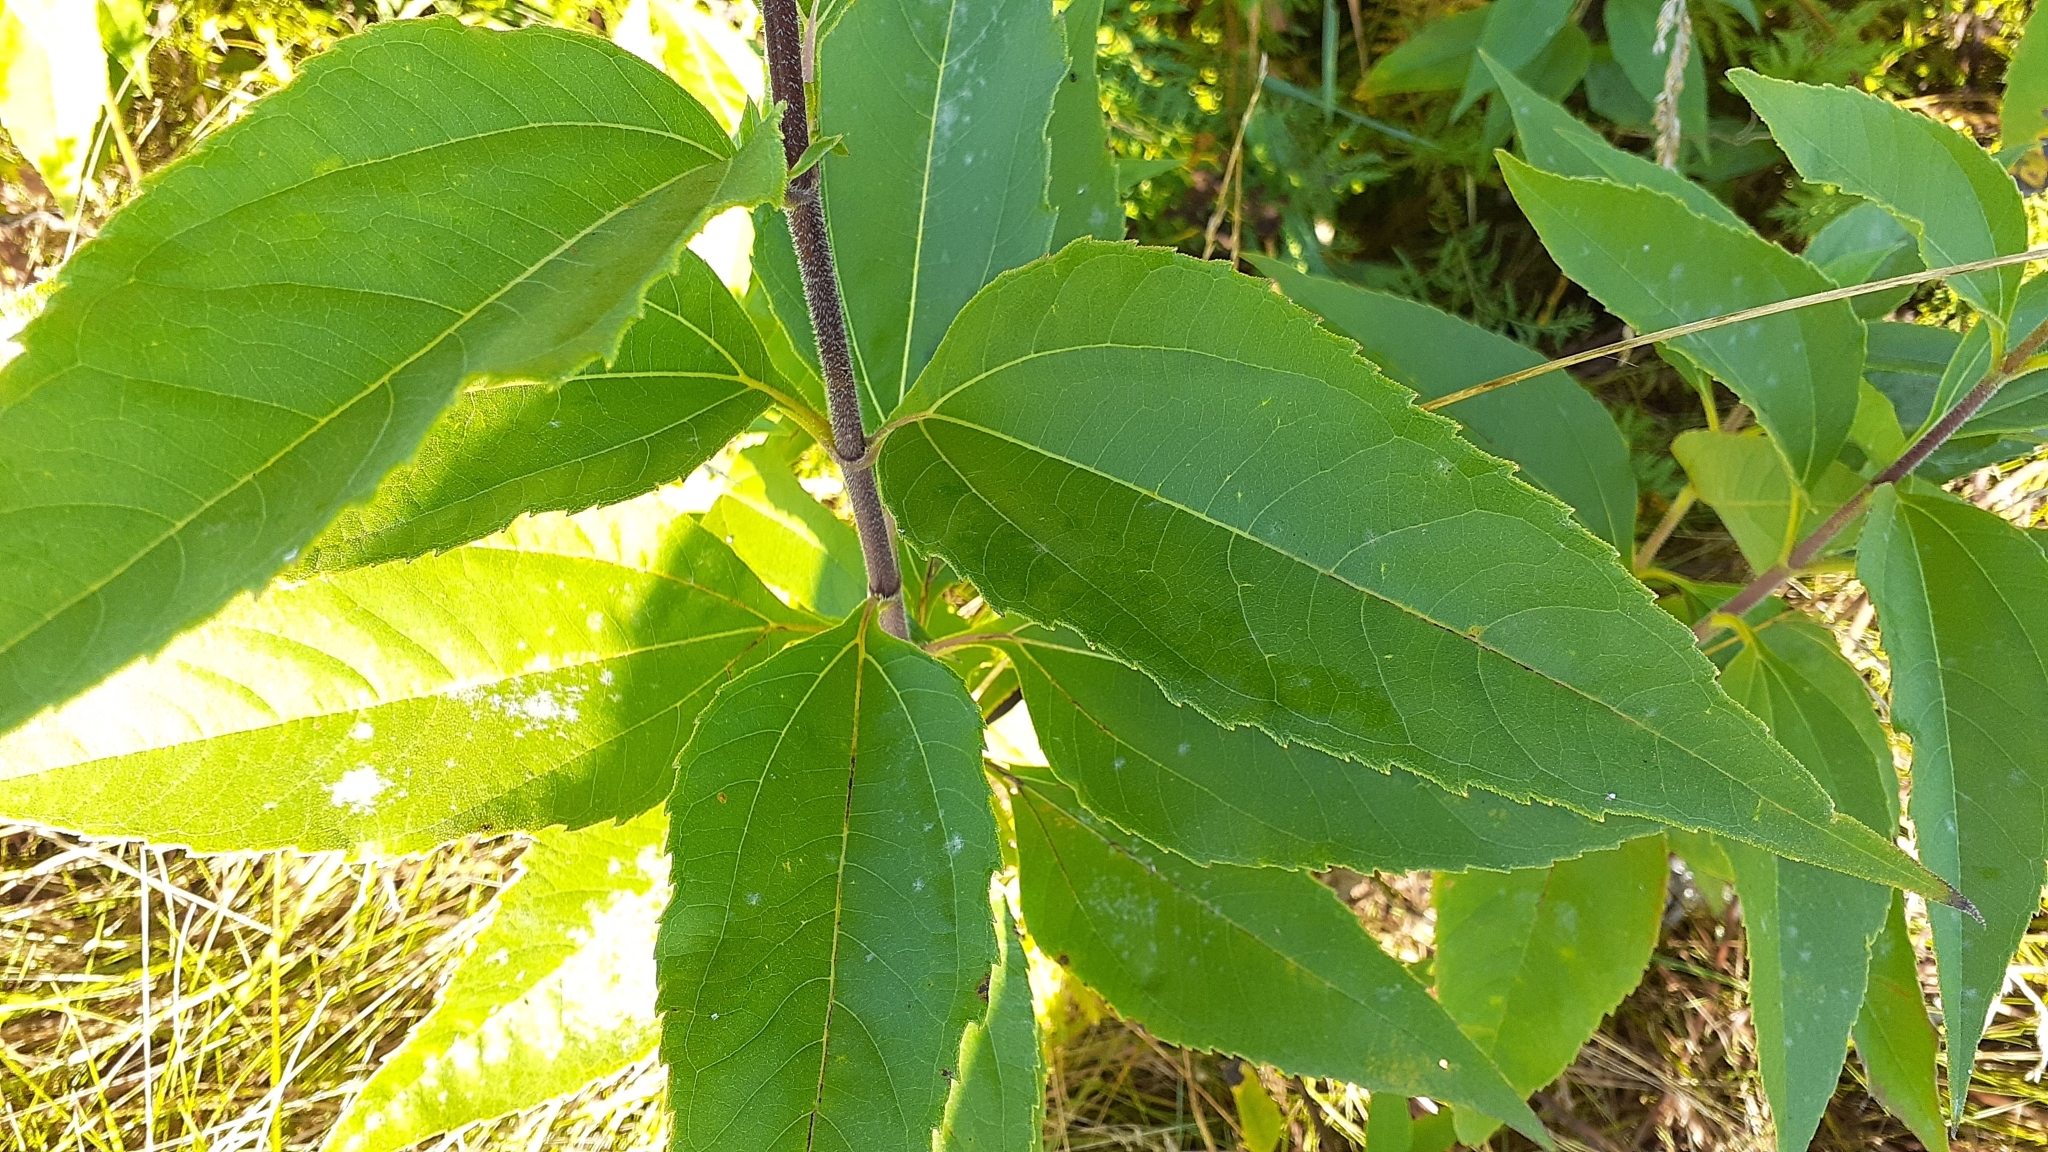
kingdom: Plantae
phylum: Tracheophyta
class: Magnoliopsida
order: Asterales
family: Asteraceae
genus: Helianthus
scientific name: Helianthus tuberosus
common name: Jerusalem artichoke
